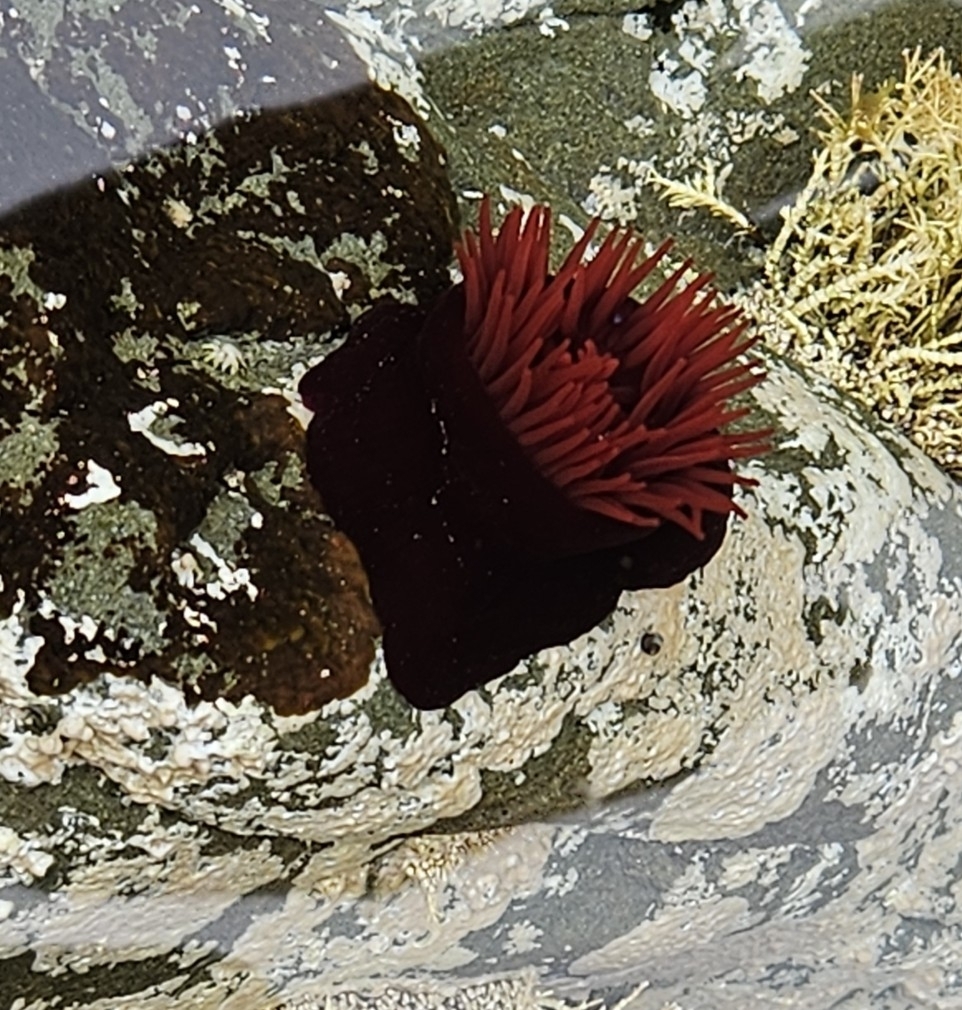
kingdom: Animalia
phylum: Cnidaria
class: Anthozoa
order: Actiniaria
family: Actiniidae
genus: Actinia
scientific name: Actinia tenebrosa
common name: Waratah anemone
